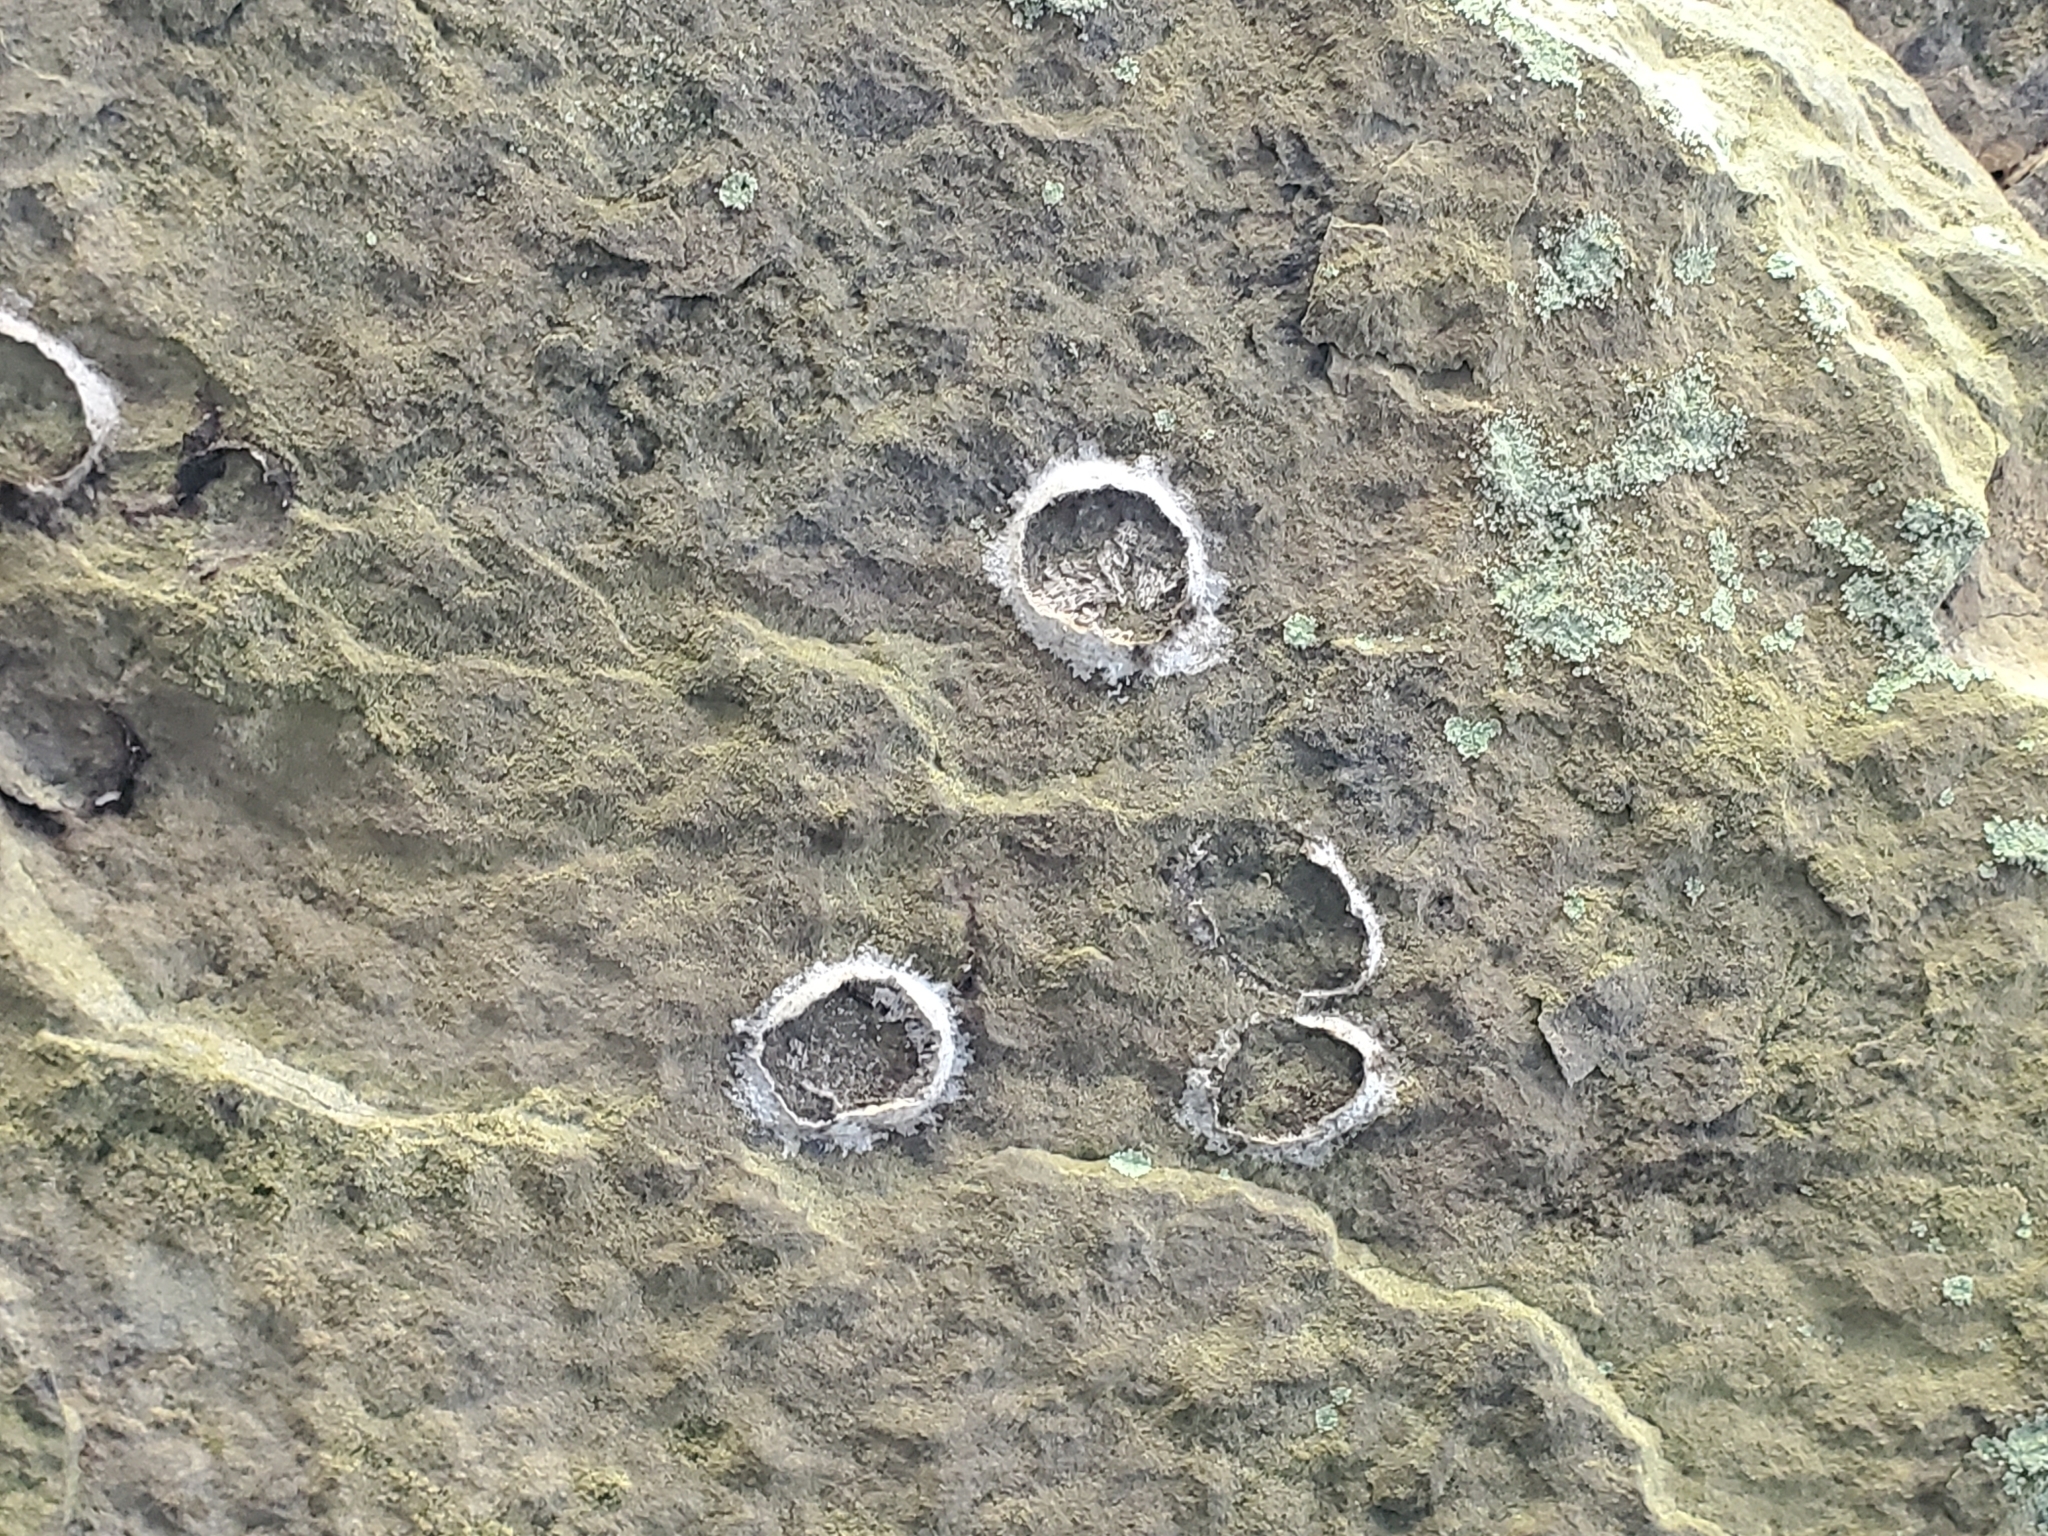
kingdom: Animalia
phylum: Arthropoda
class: Insecta
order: Megaloptera
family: Corydalidae
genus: Corydalus
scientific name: Corydalus cornutus
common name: Dobsonfly
